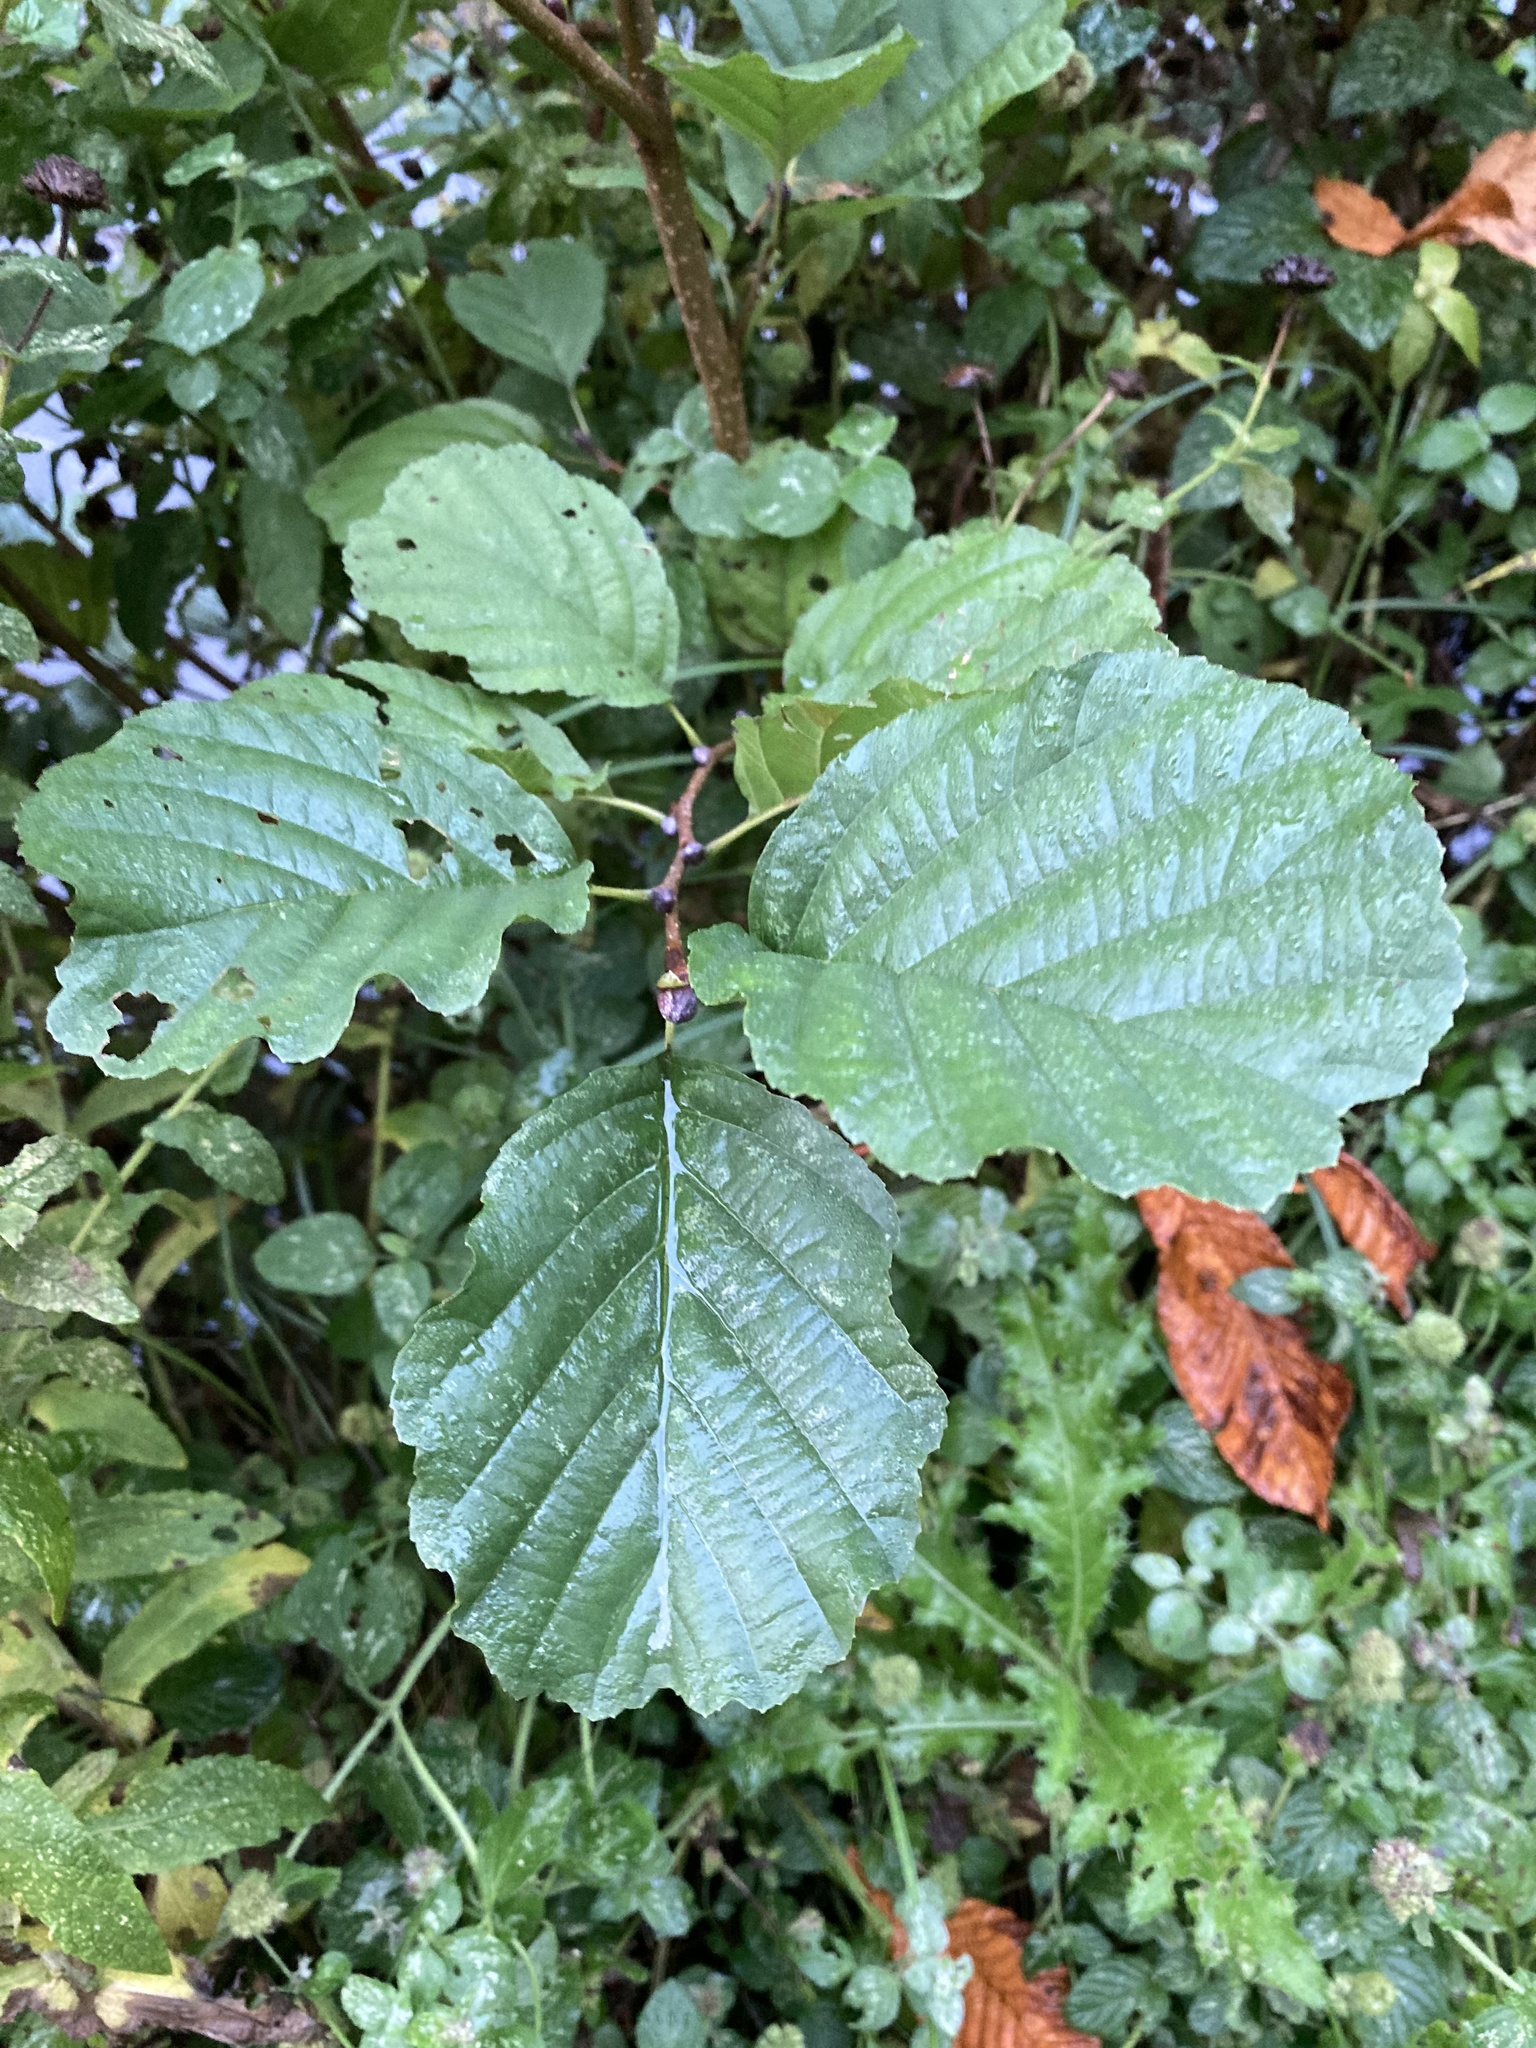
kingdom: Plantae
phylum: Tracheophyta
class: Magnoliopsida
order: Fagales
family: Betulaceae
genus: Alnus
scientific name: Alnus glutinosa
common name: Black alder
